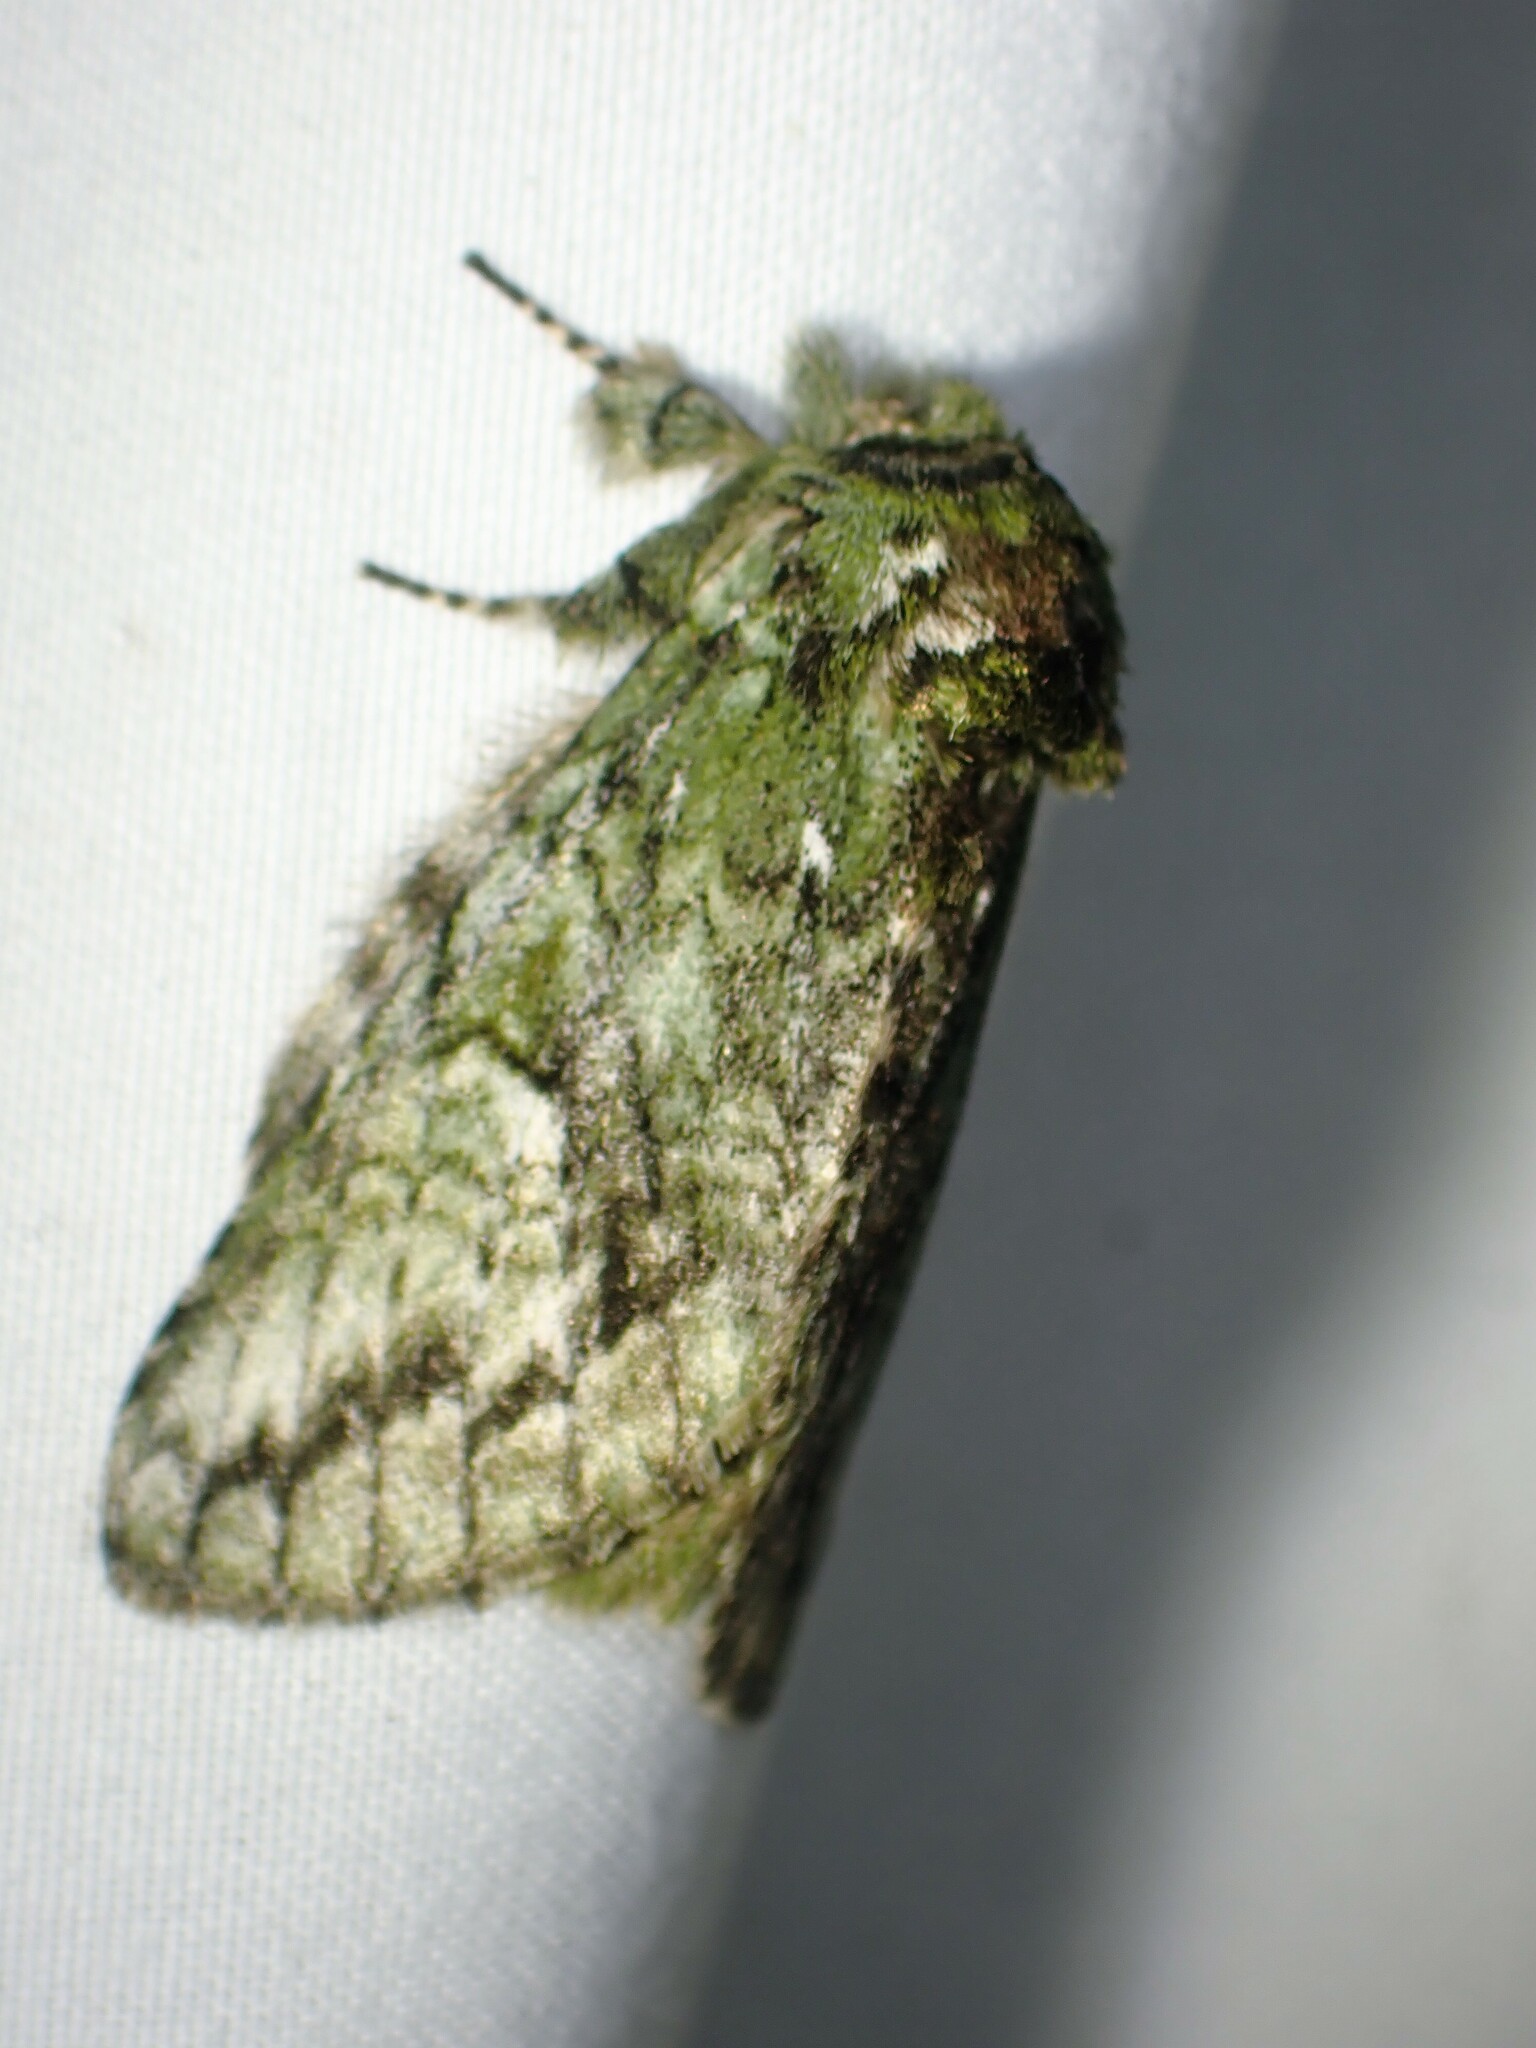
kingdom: Animalia
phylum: Arthropoda
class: Insecta
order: Lepidoptera
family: Notodontidae
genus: Heterocampa
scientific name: Heterocampa
